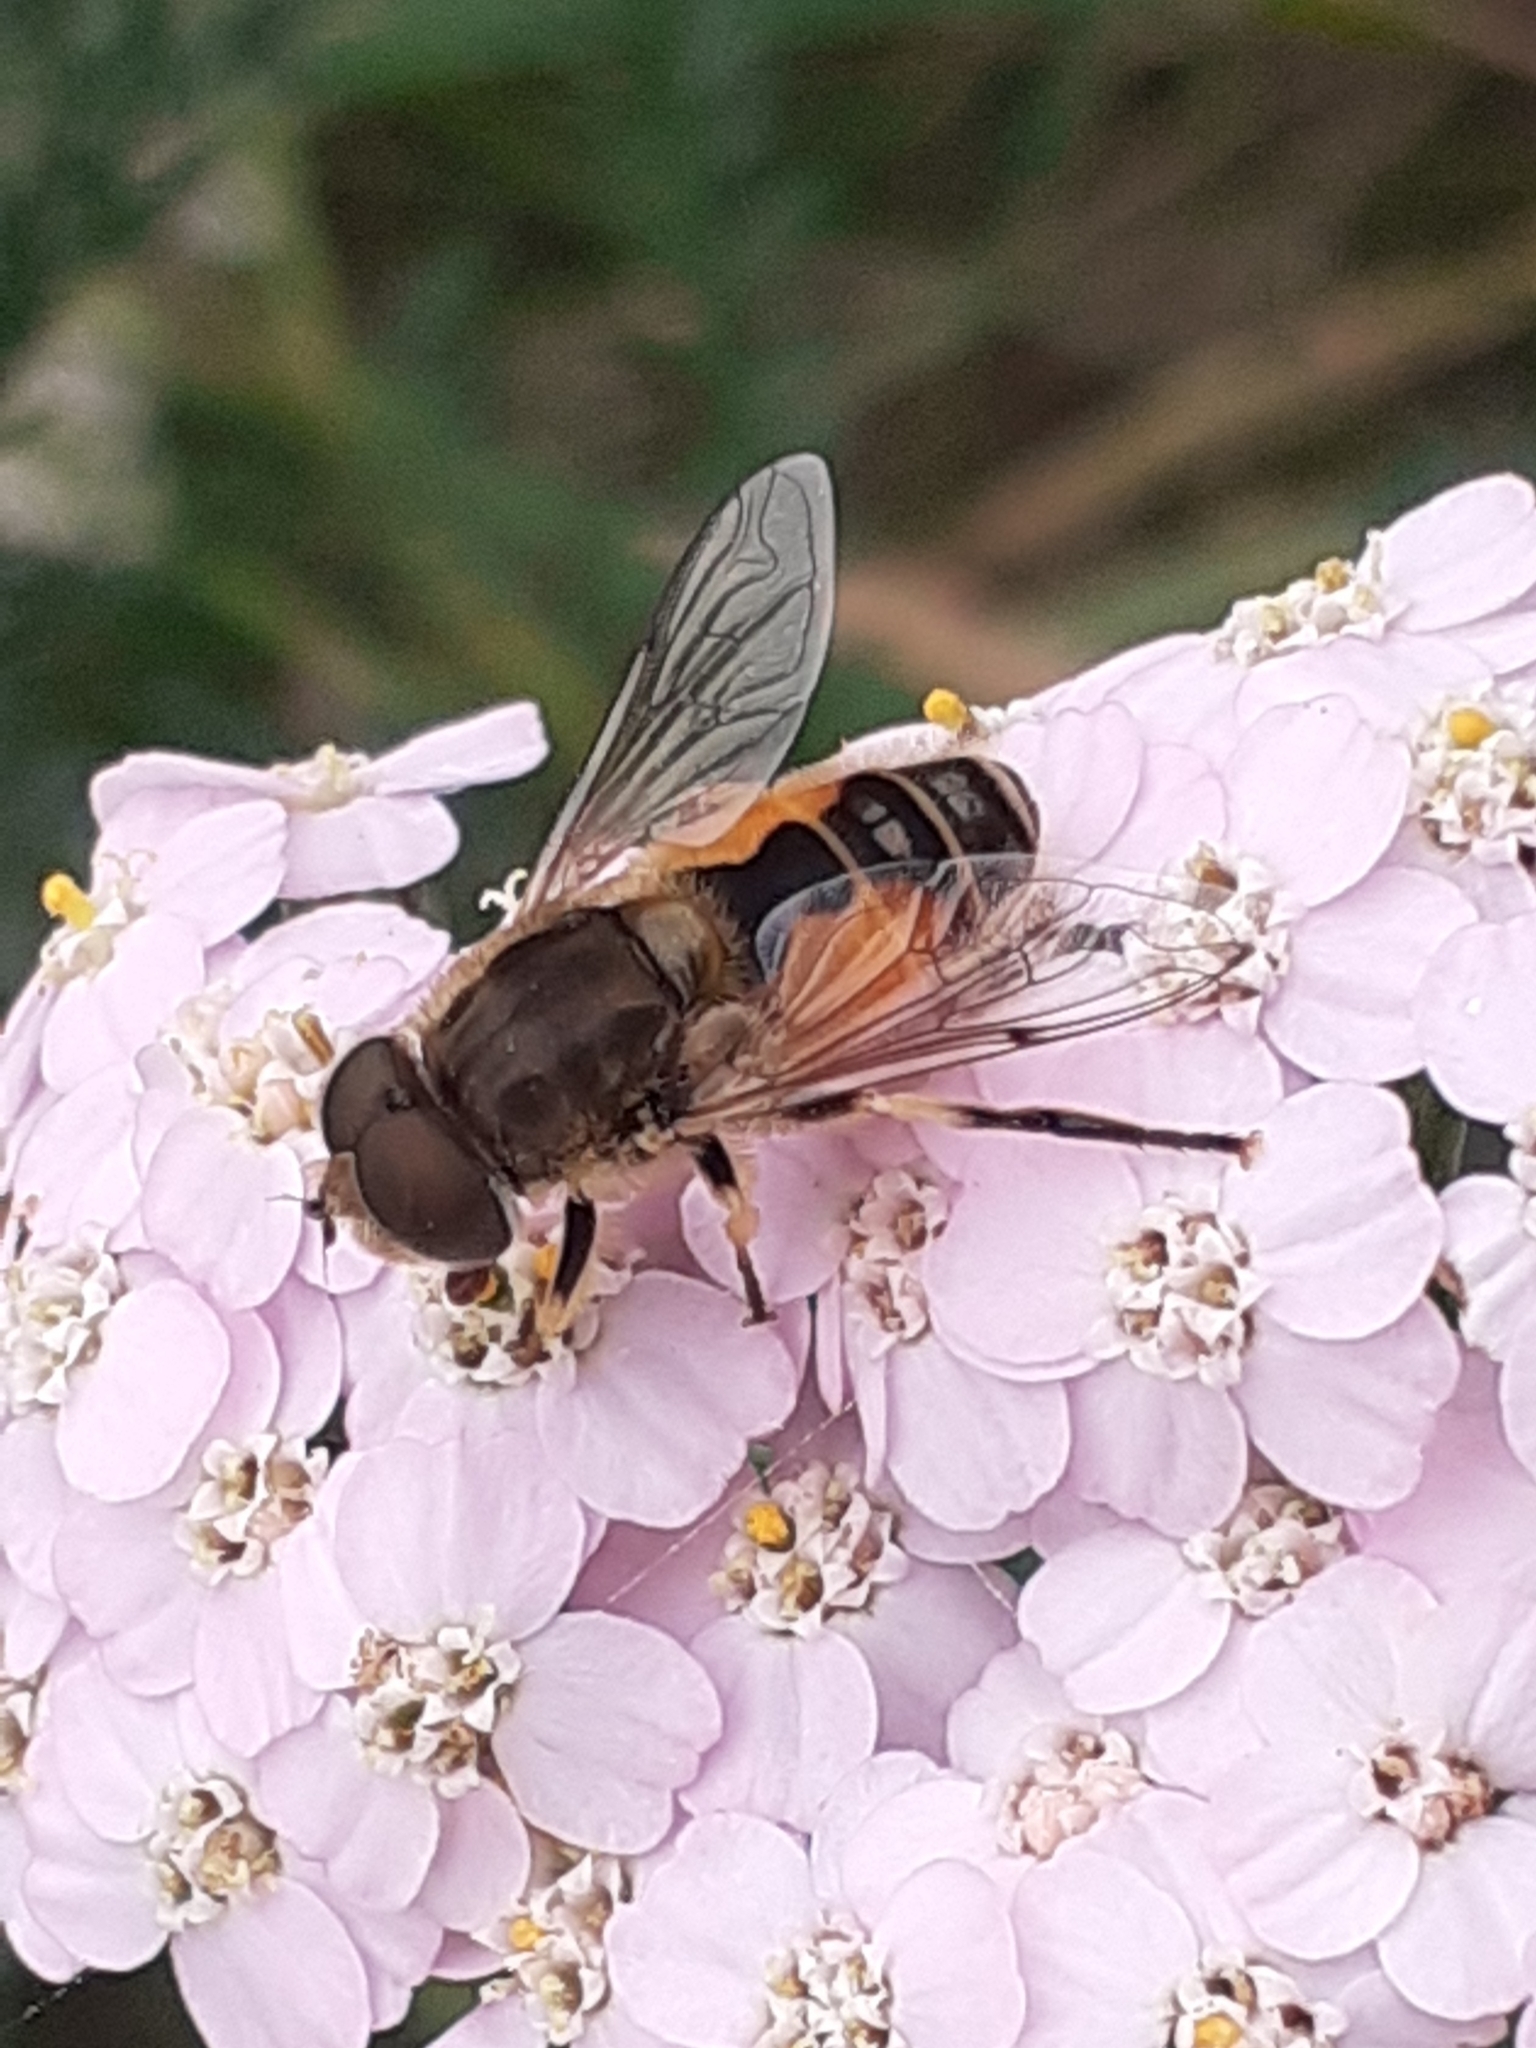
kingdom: Animalia
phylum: Arthropoda
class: Insecta
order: Diptera
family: Syrphidae
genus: Eristalis
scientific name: Eristalis arbustorum
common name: Hover fly
